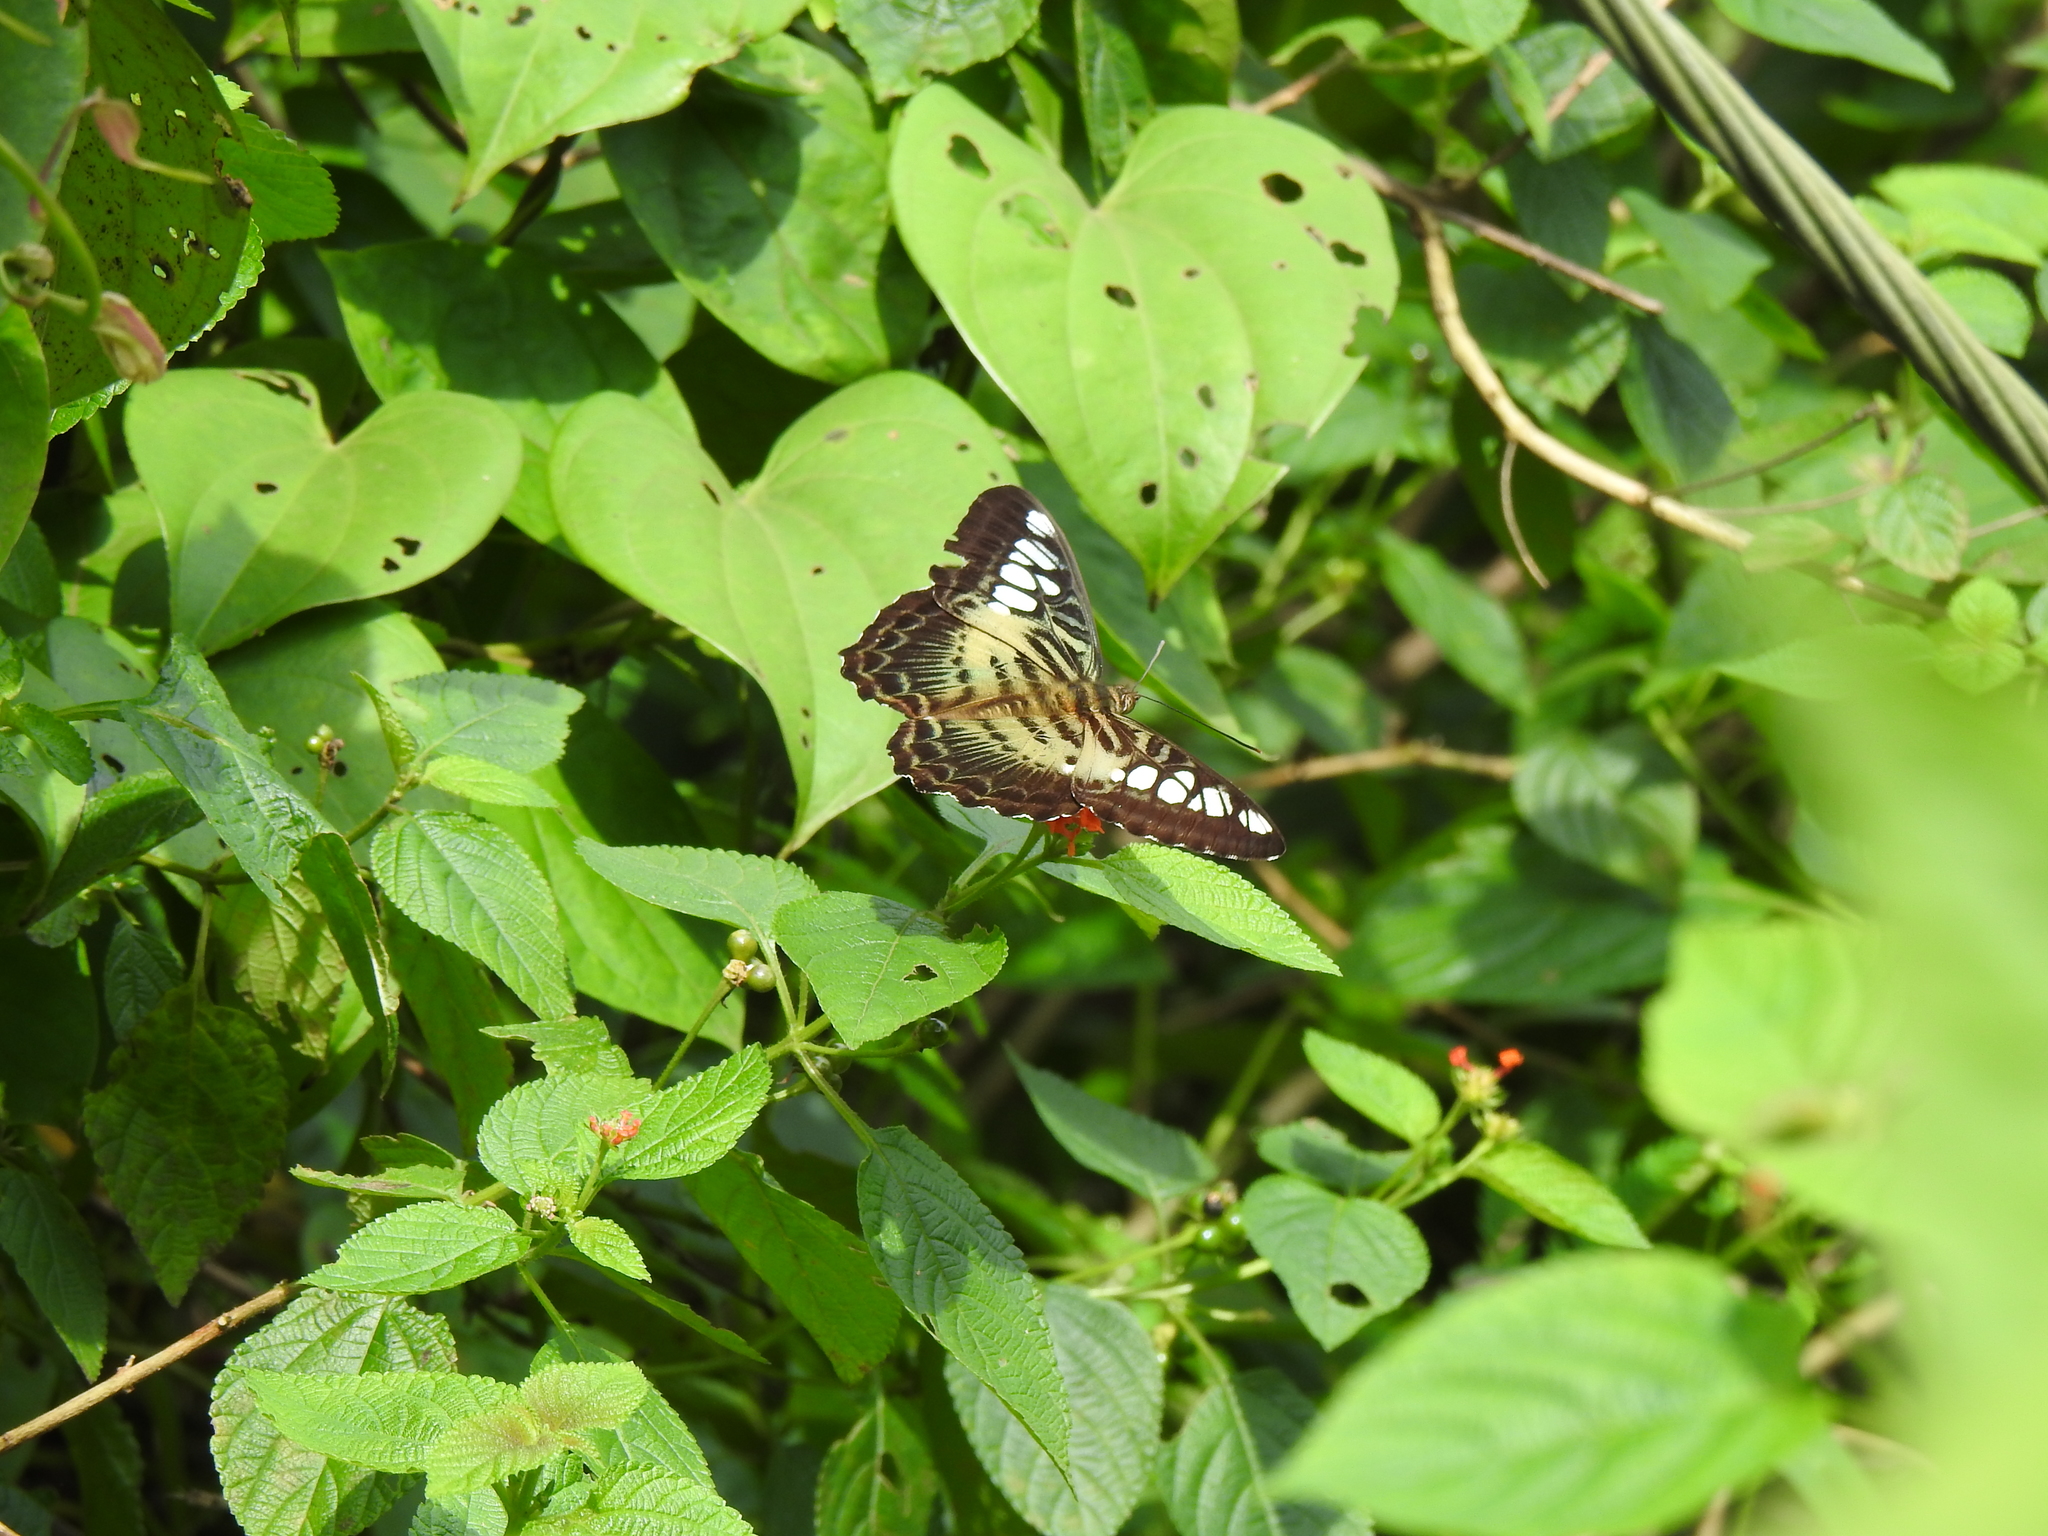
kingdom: Animalia
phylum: Arthropoda
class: Insecta
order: Lepidoptera
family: Nymphalidae
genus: Kallima
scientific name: Kallima sylvia
